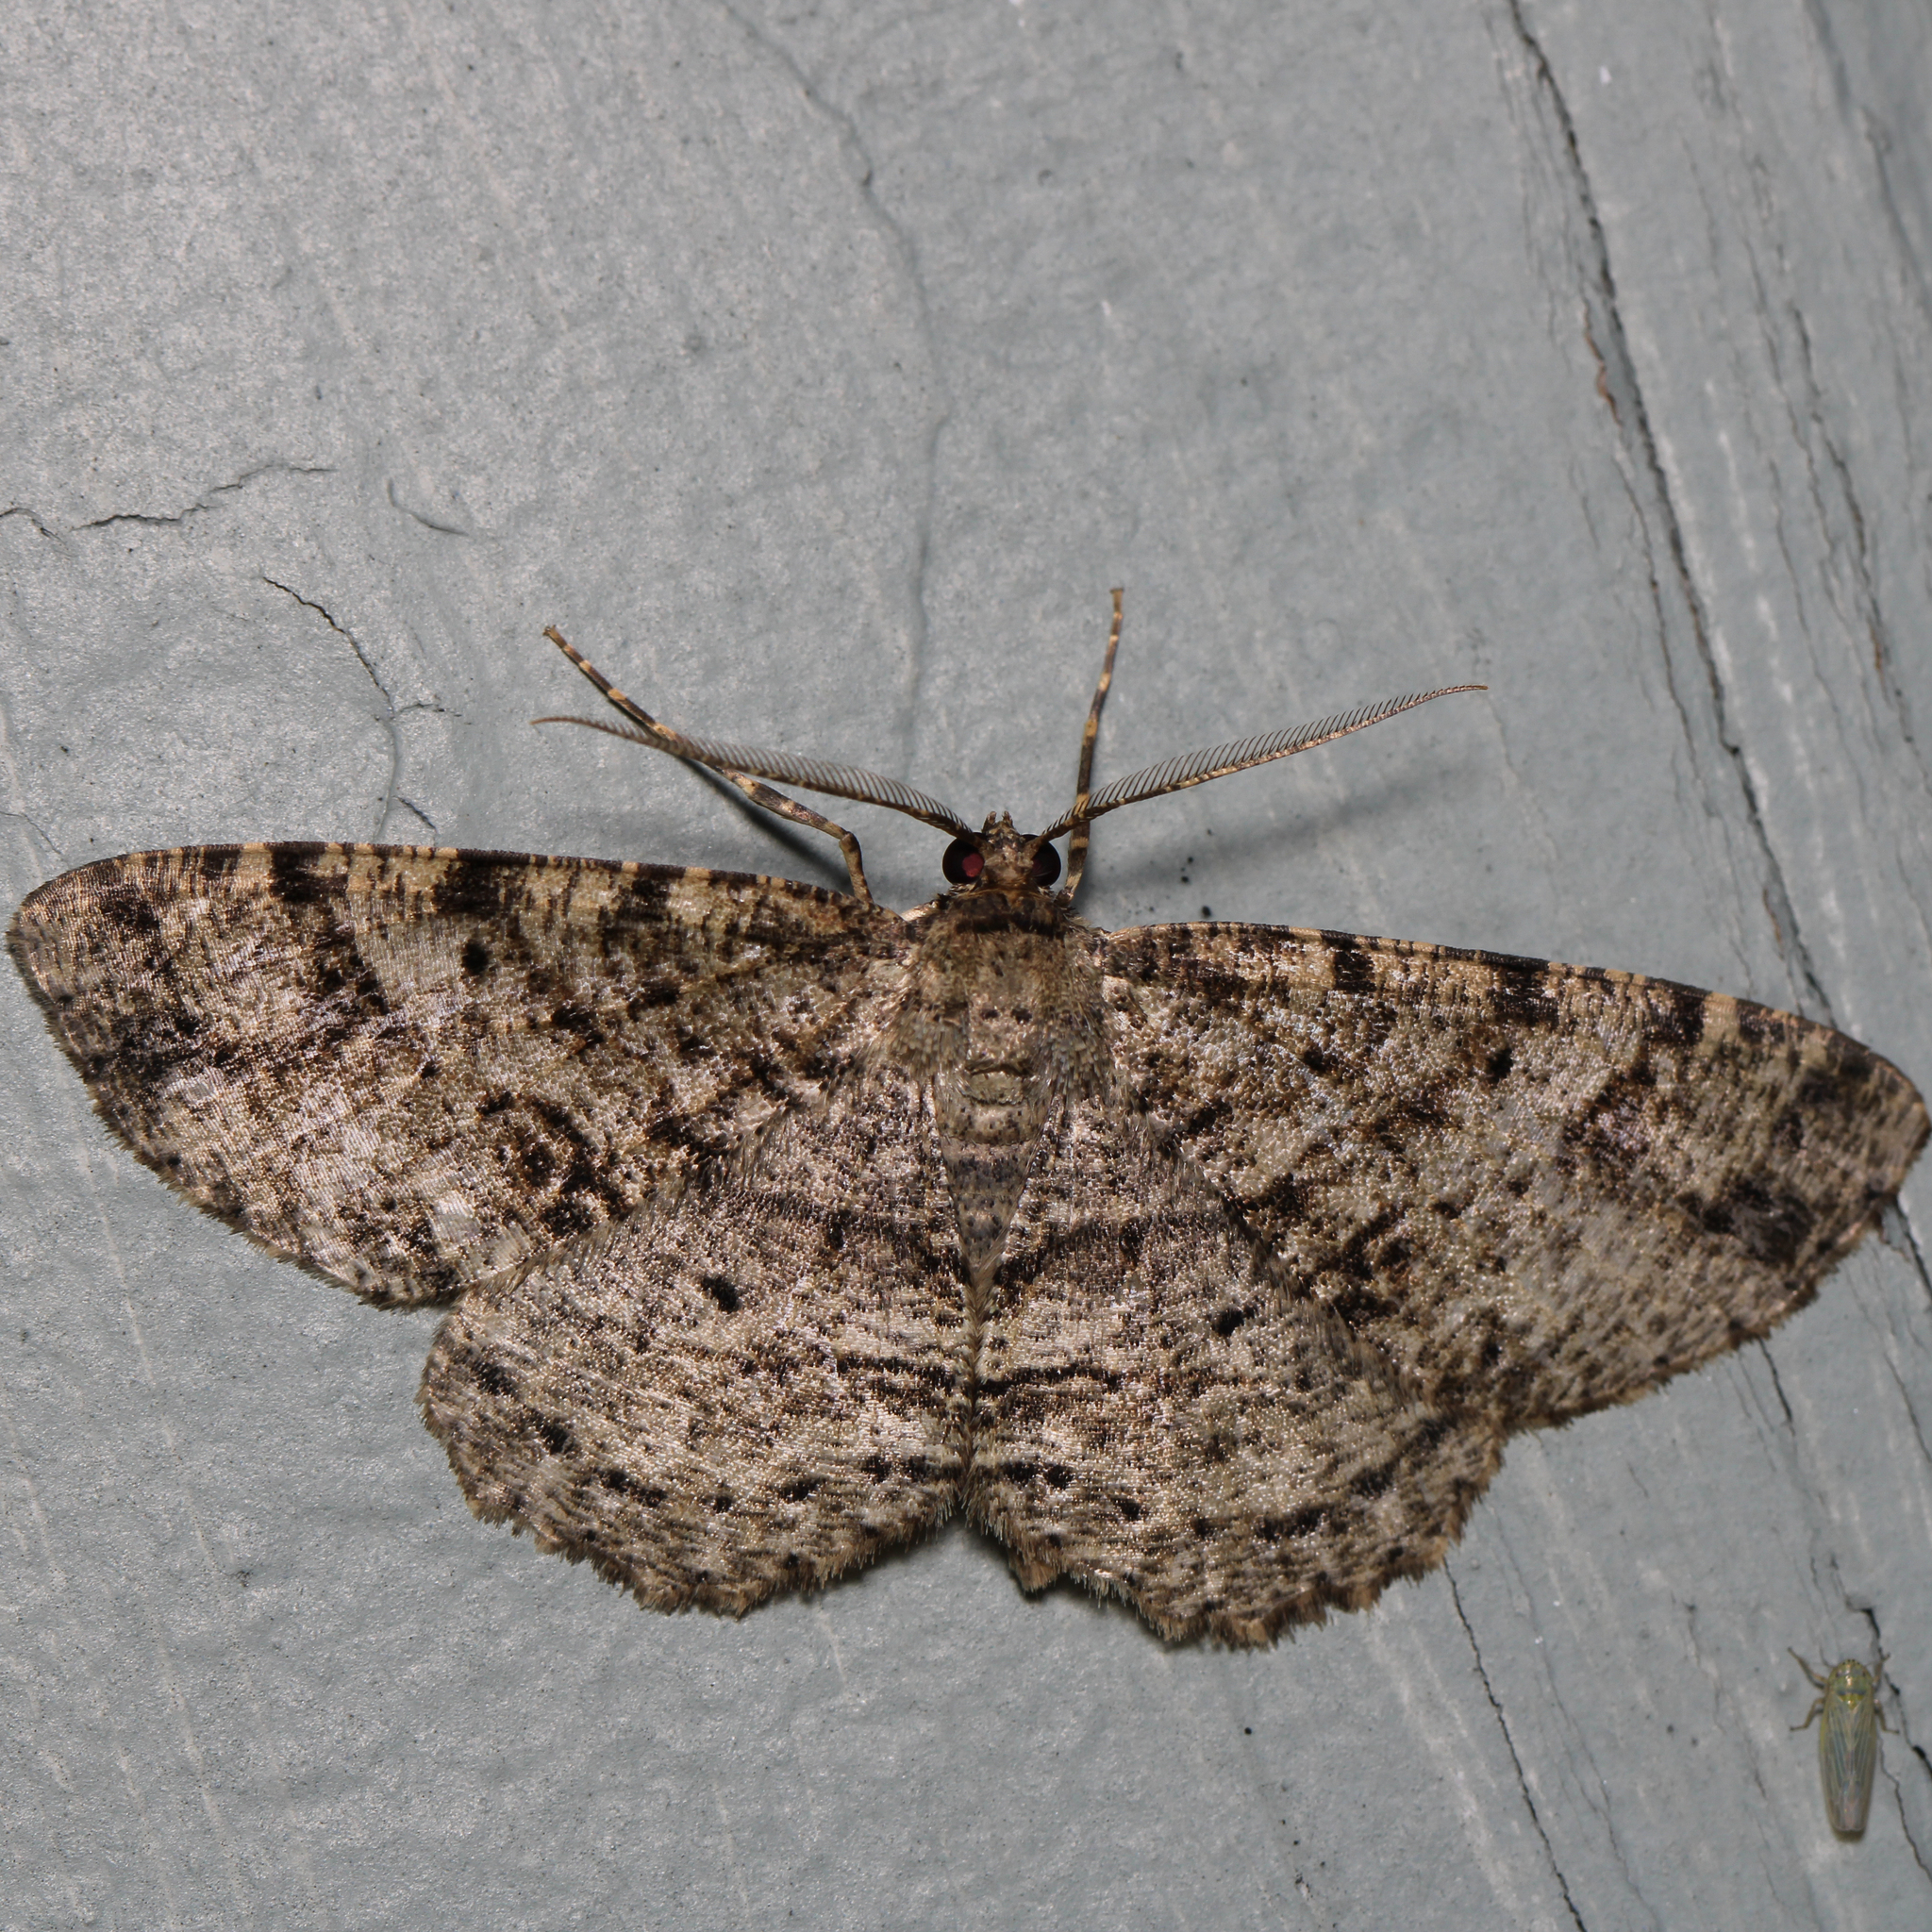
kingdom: Animalia
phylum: Arthropoda
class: Insecta
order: Lepidoptera
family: Geometridae
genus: Melanolophia
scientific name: Melanolophia canadaria
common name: Canadian melanolophia
